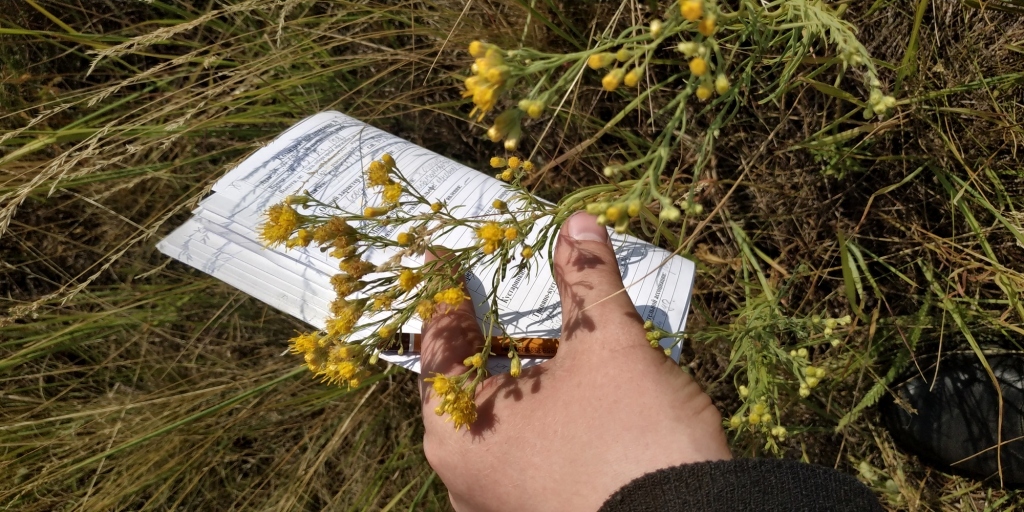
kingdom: Plantae
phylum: Tracheophyta
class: Magnoliopsida
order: Asterales
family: Asteraceae
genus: Galatella
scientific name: Galatella biflora
